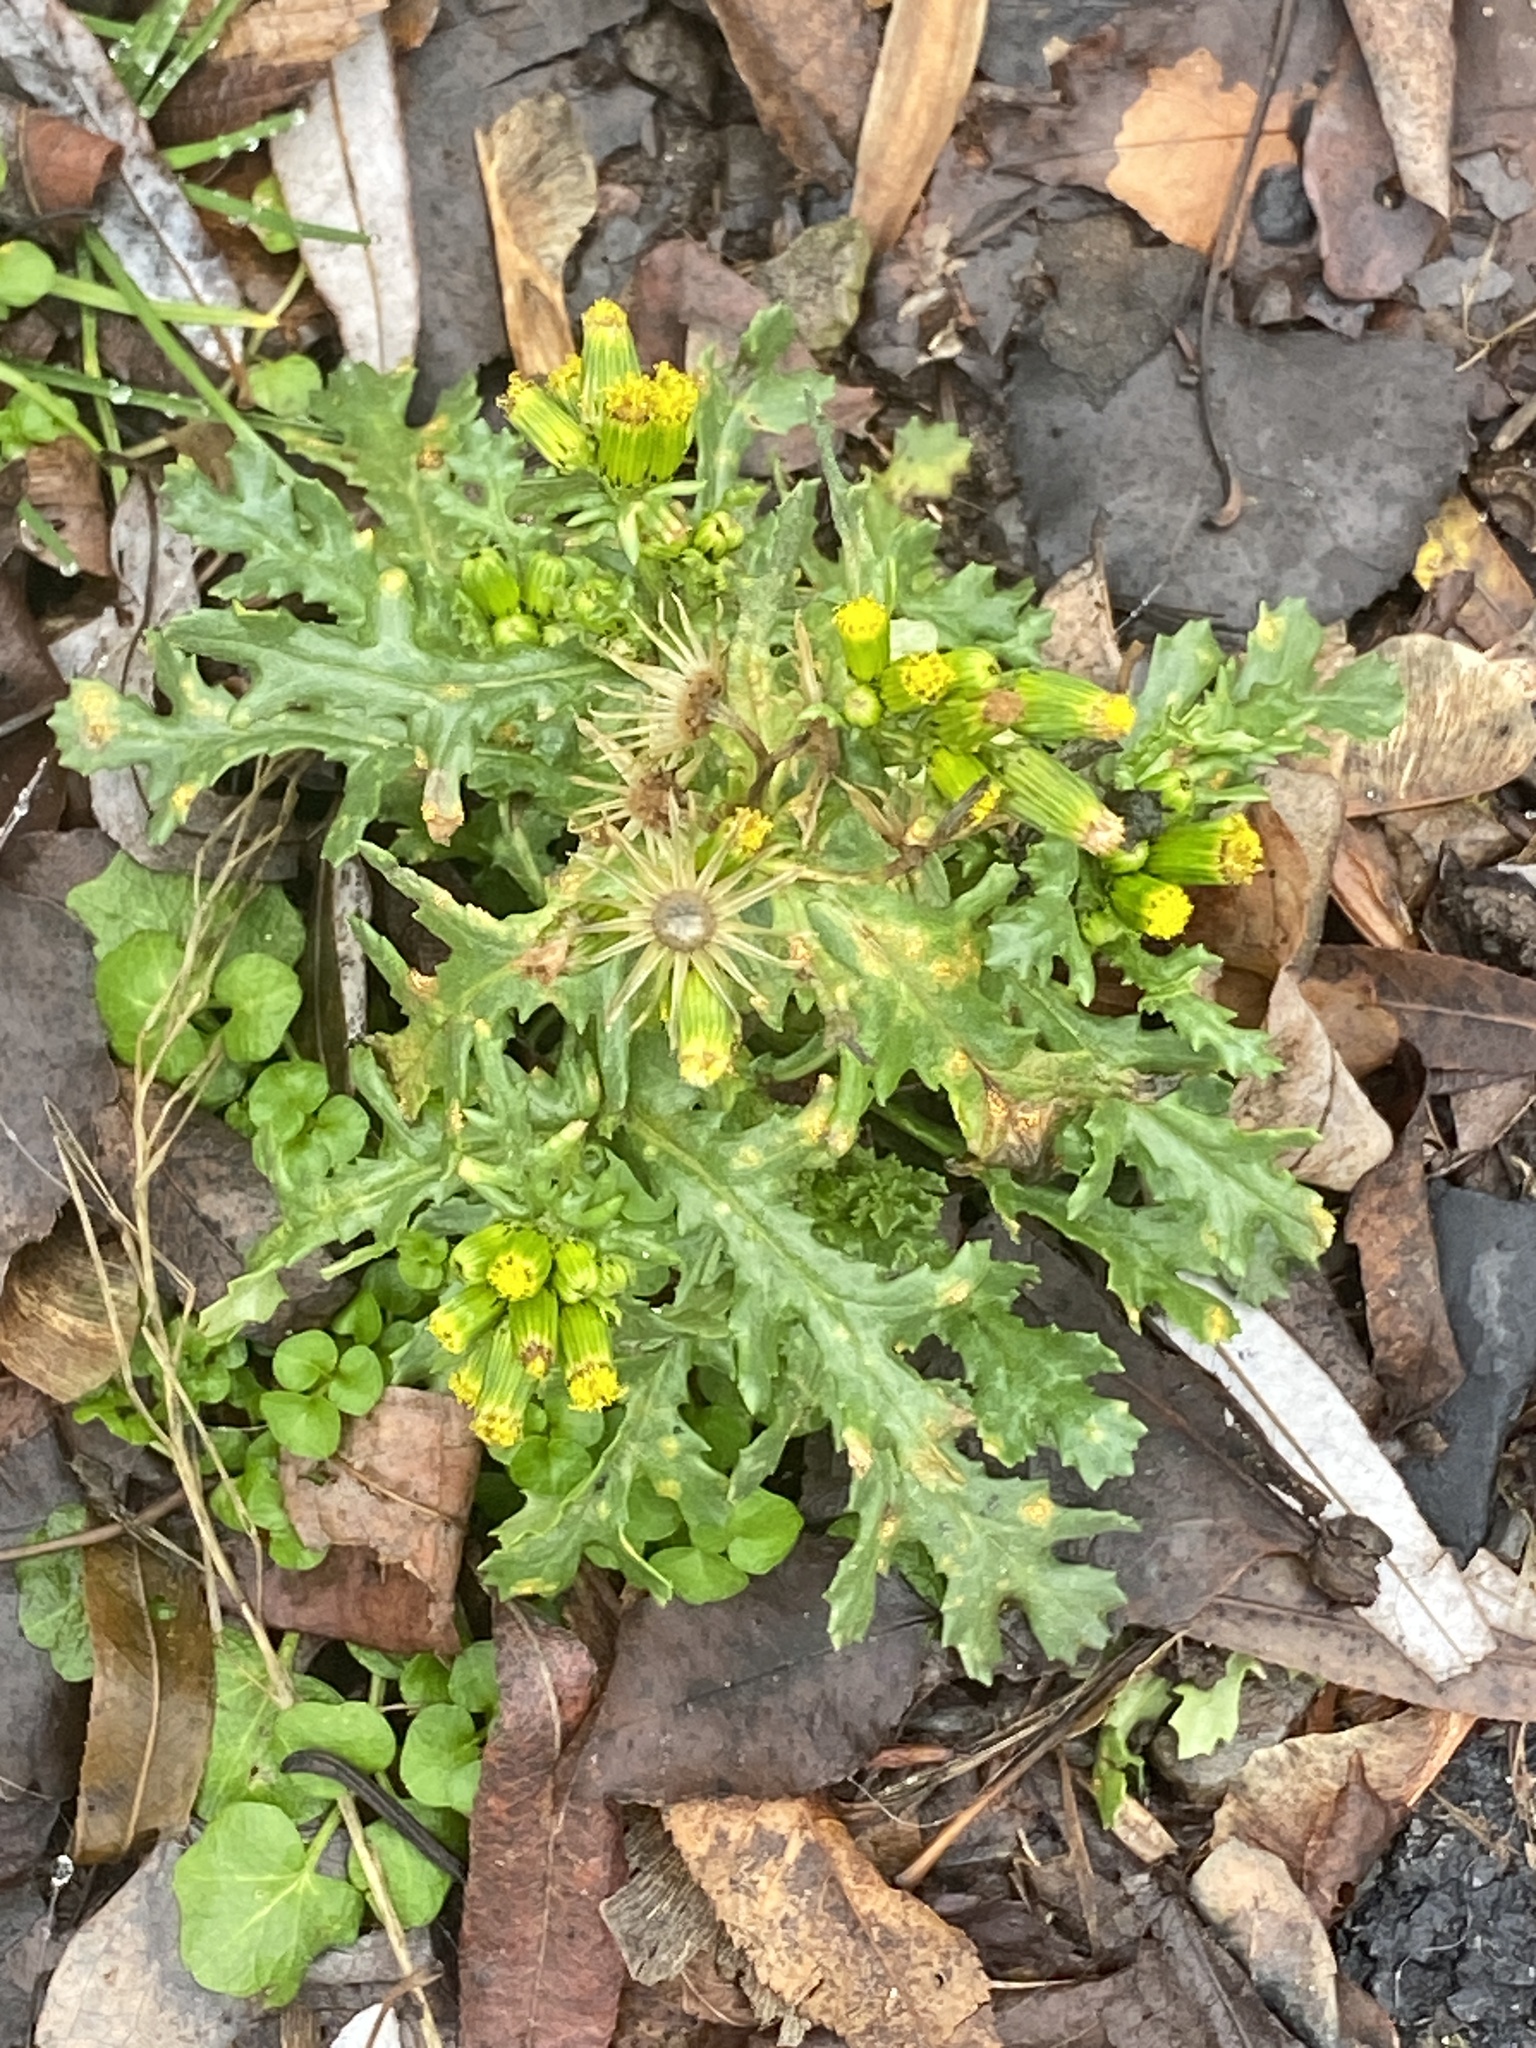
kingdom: Plantae
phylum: Tracheophyta
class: Magnoliopsida
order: Asterales
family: Asteraceae
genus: Senecio
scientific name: Senecio vulgaris
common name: Old-man-in-the-spring
